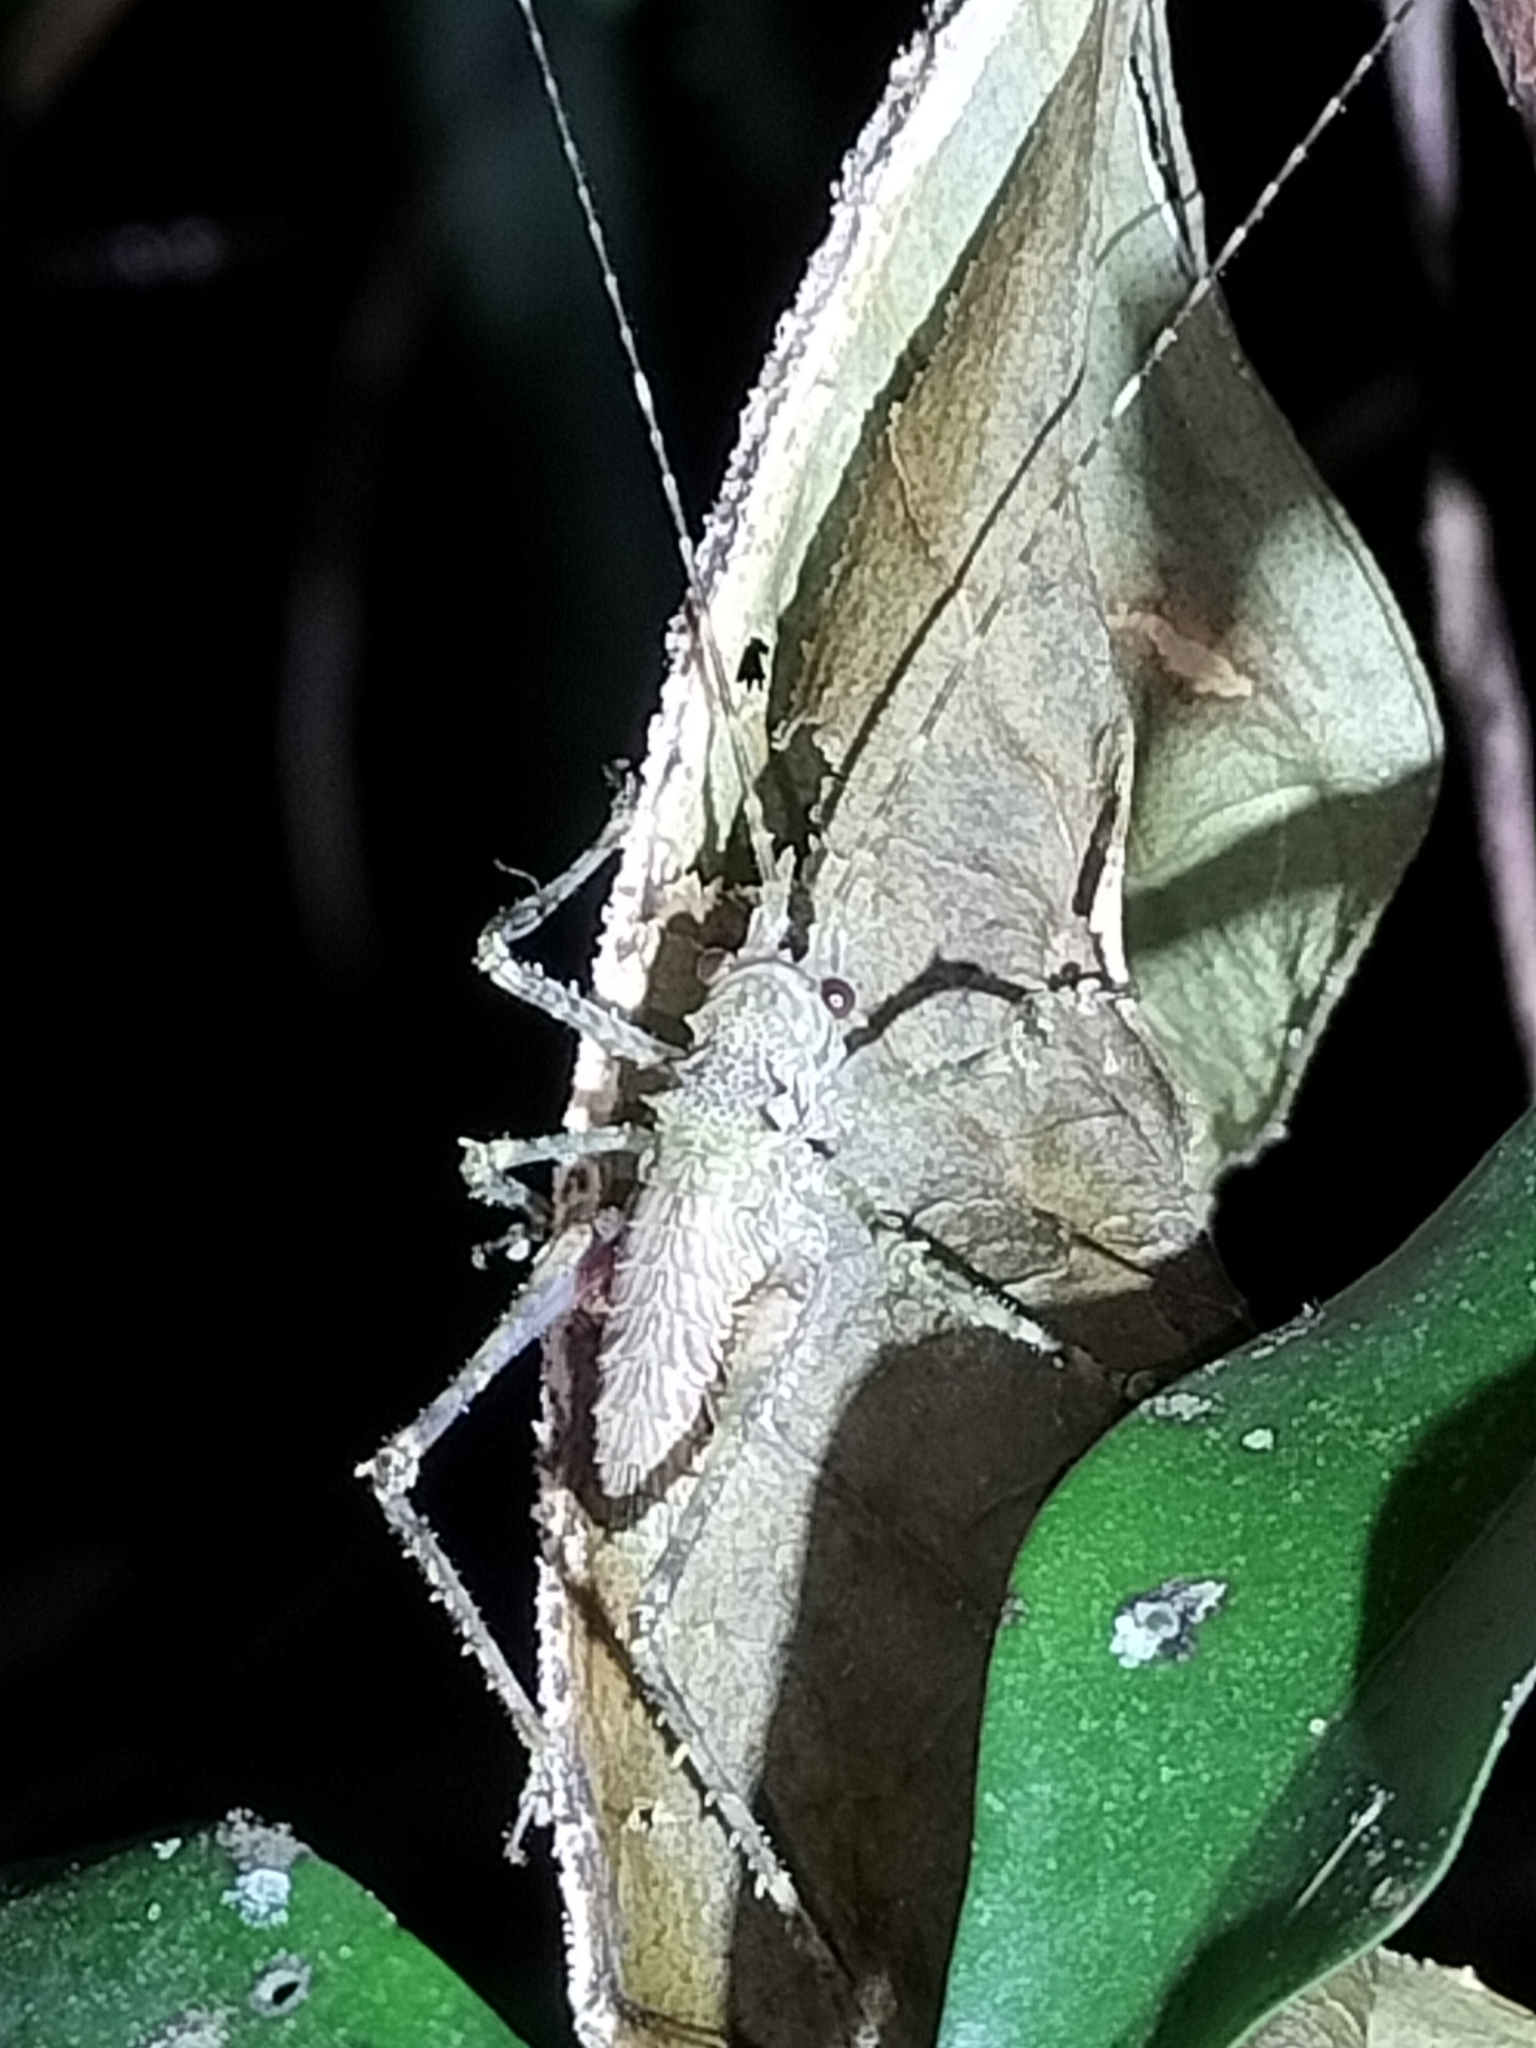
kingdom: Animalia
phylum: Arthropoda
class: Insecta
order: Orthoptera
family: Tettigoniidae
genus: Phricta
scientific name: Phricta spinosa
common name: Giant spiny forest katydid
